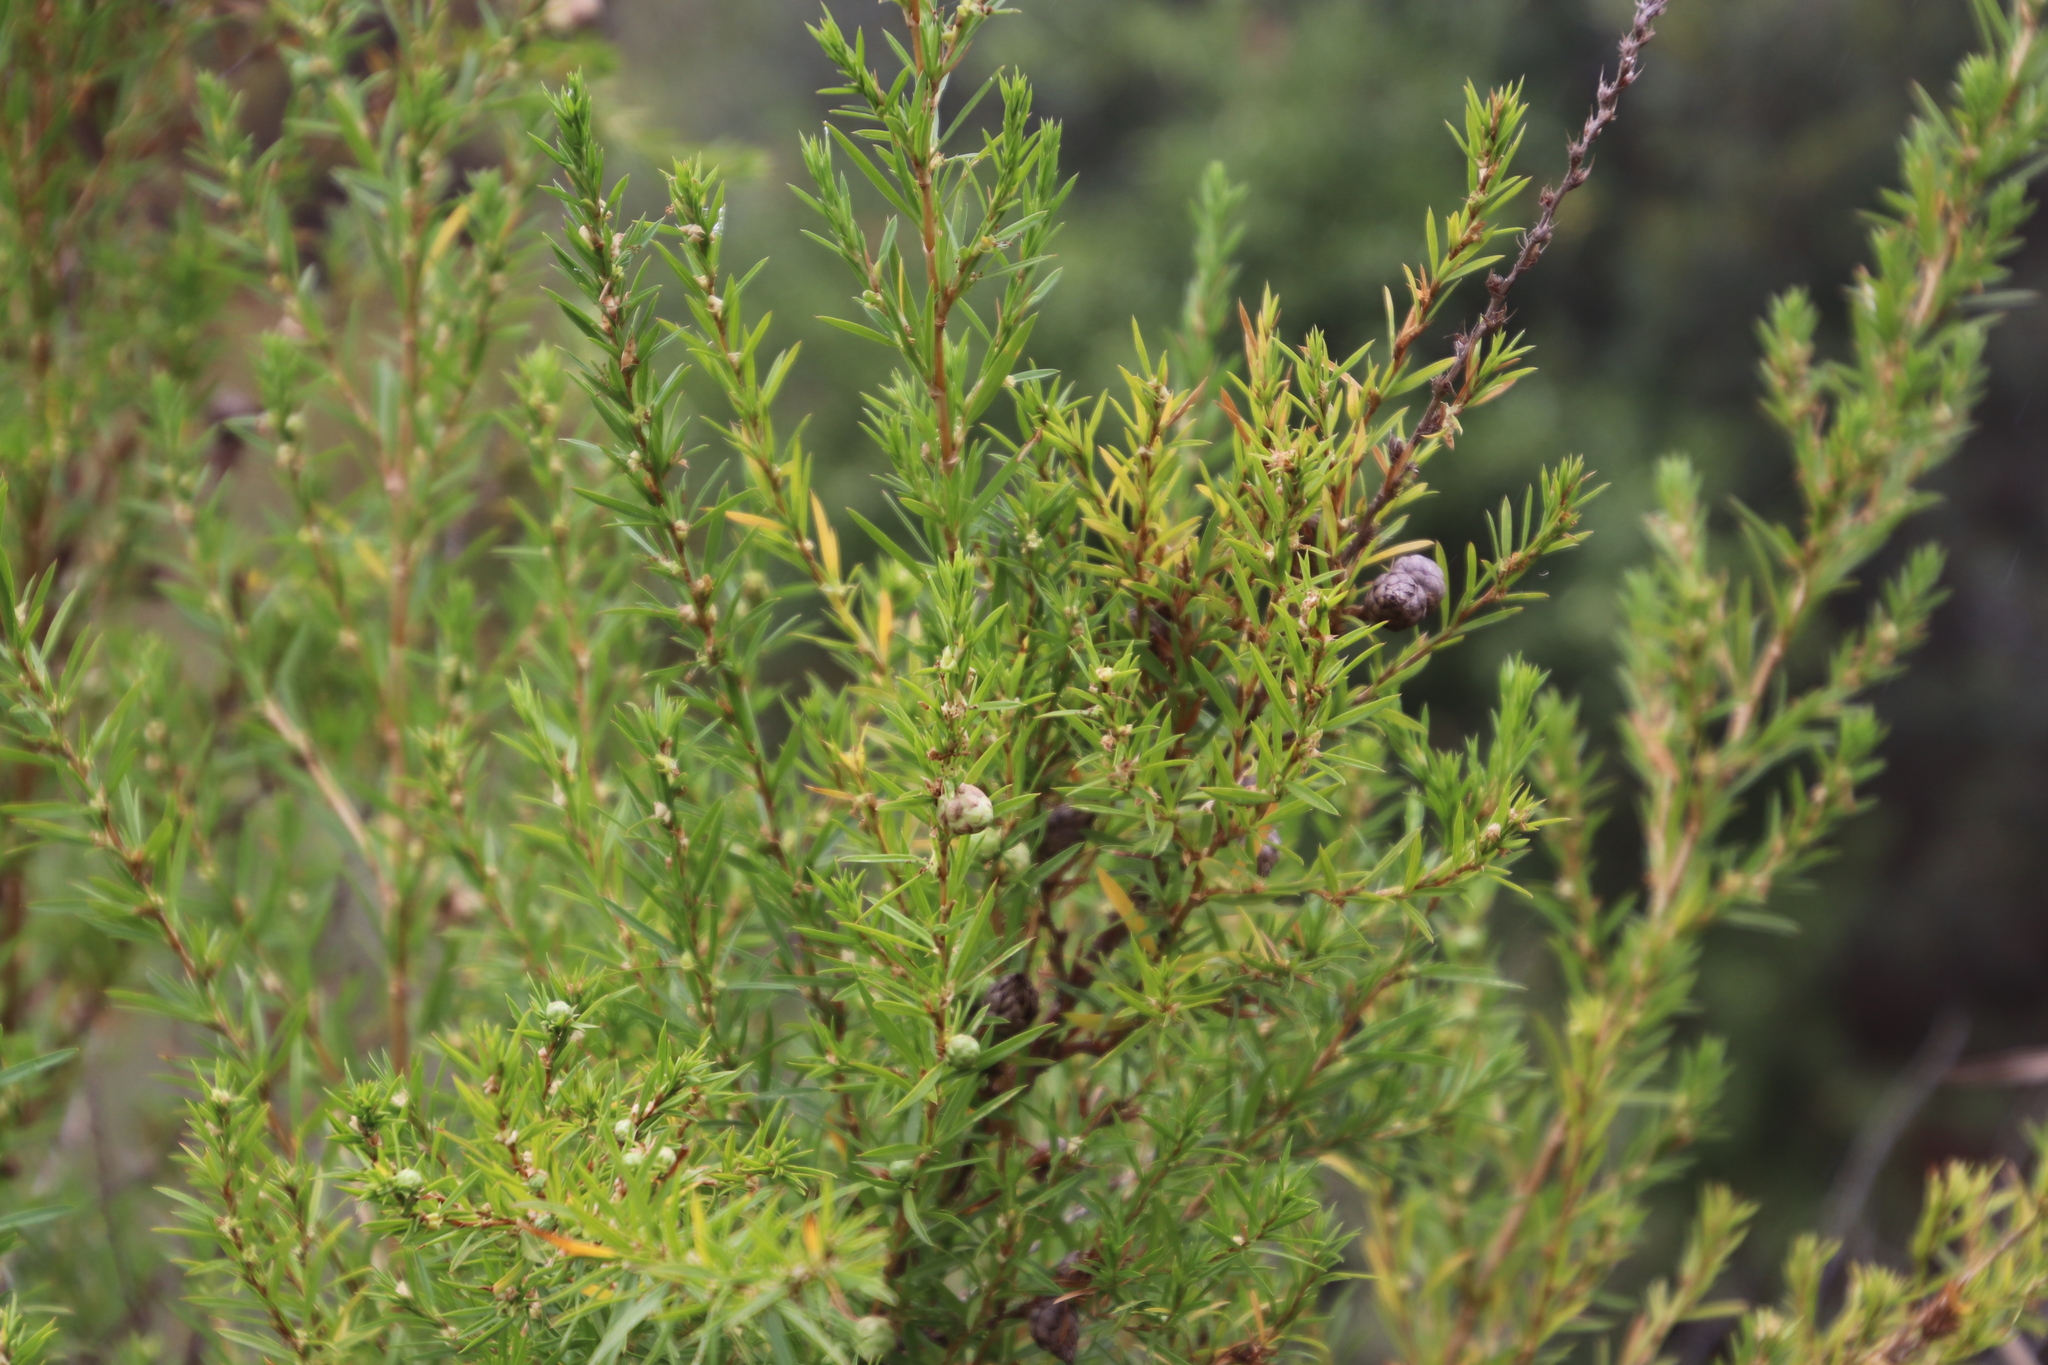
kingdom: Plantae
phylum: Tracheophyta
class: Magnoliopsida
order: Rosales
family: Rosaceae
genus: Cliffortia
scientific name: Cliffortia strobilifera
